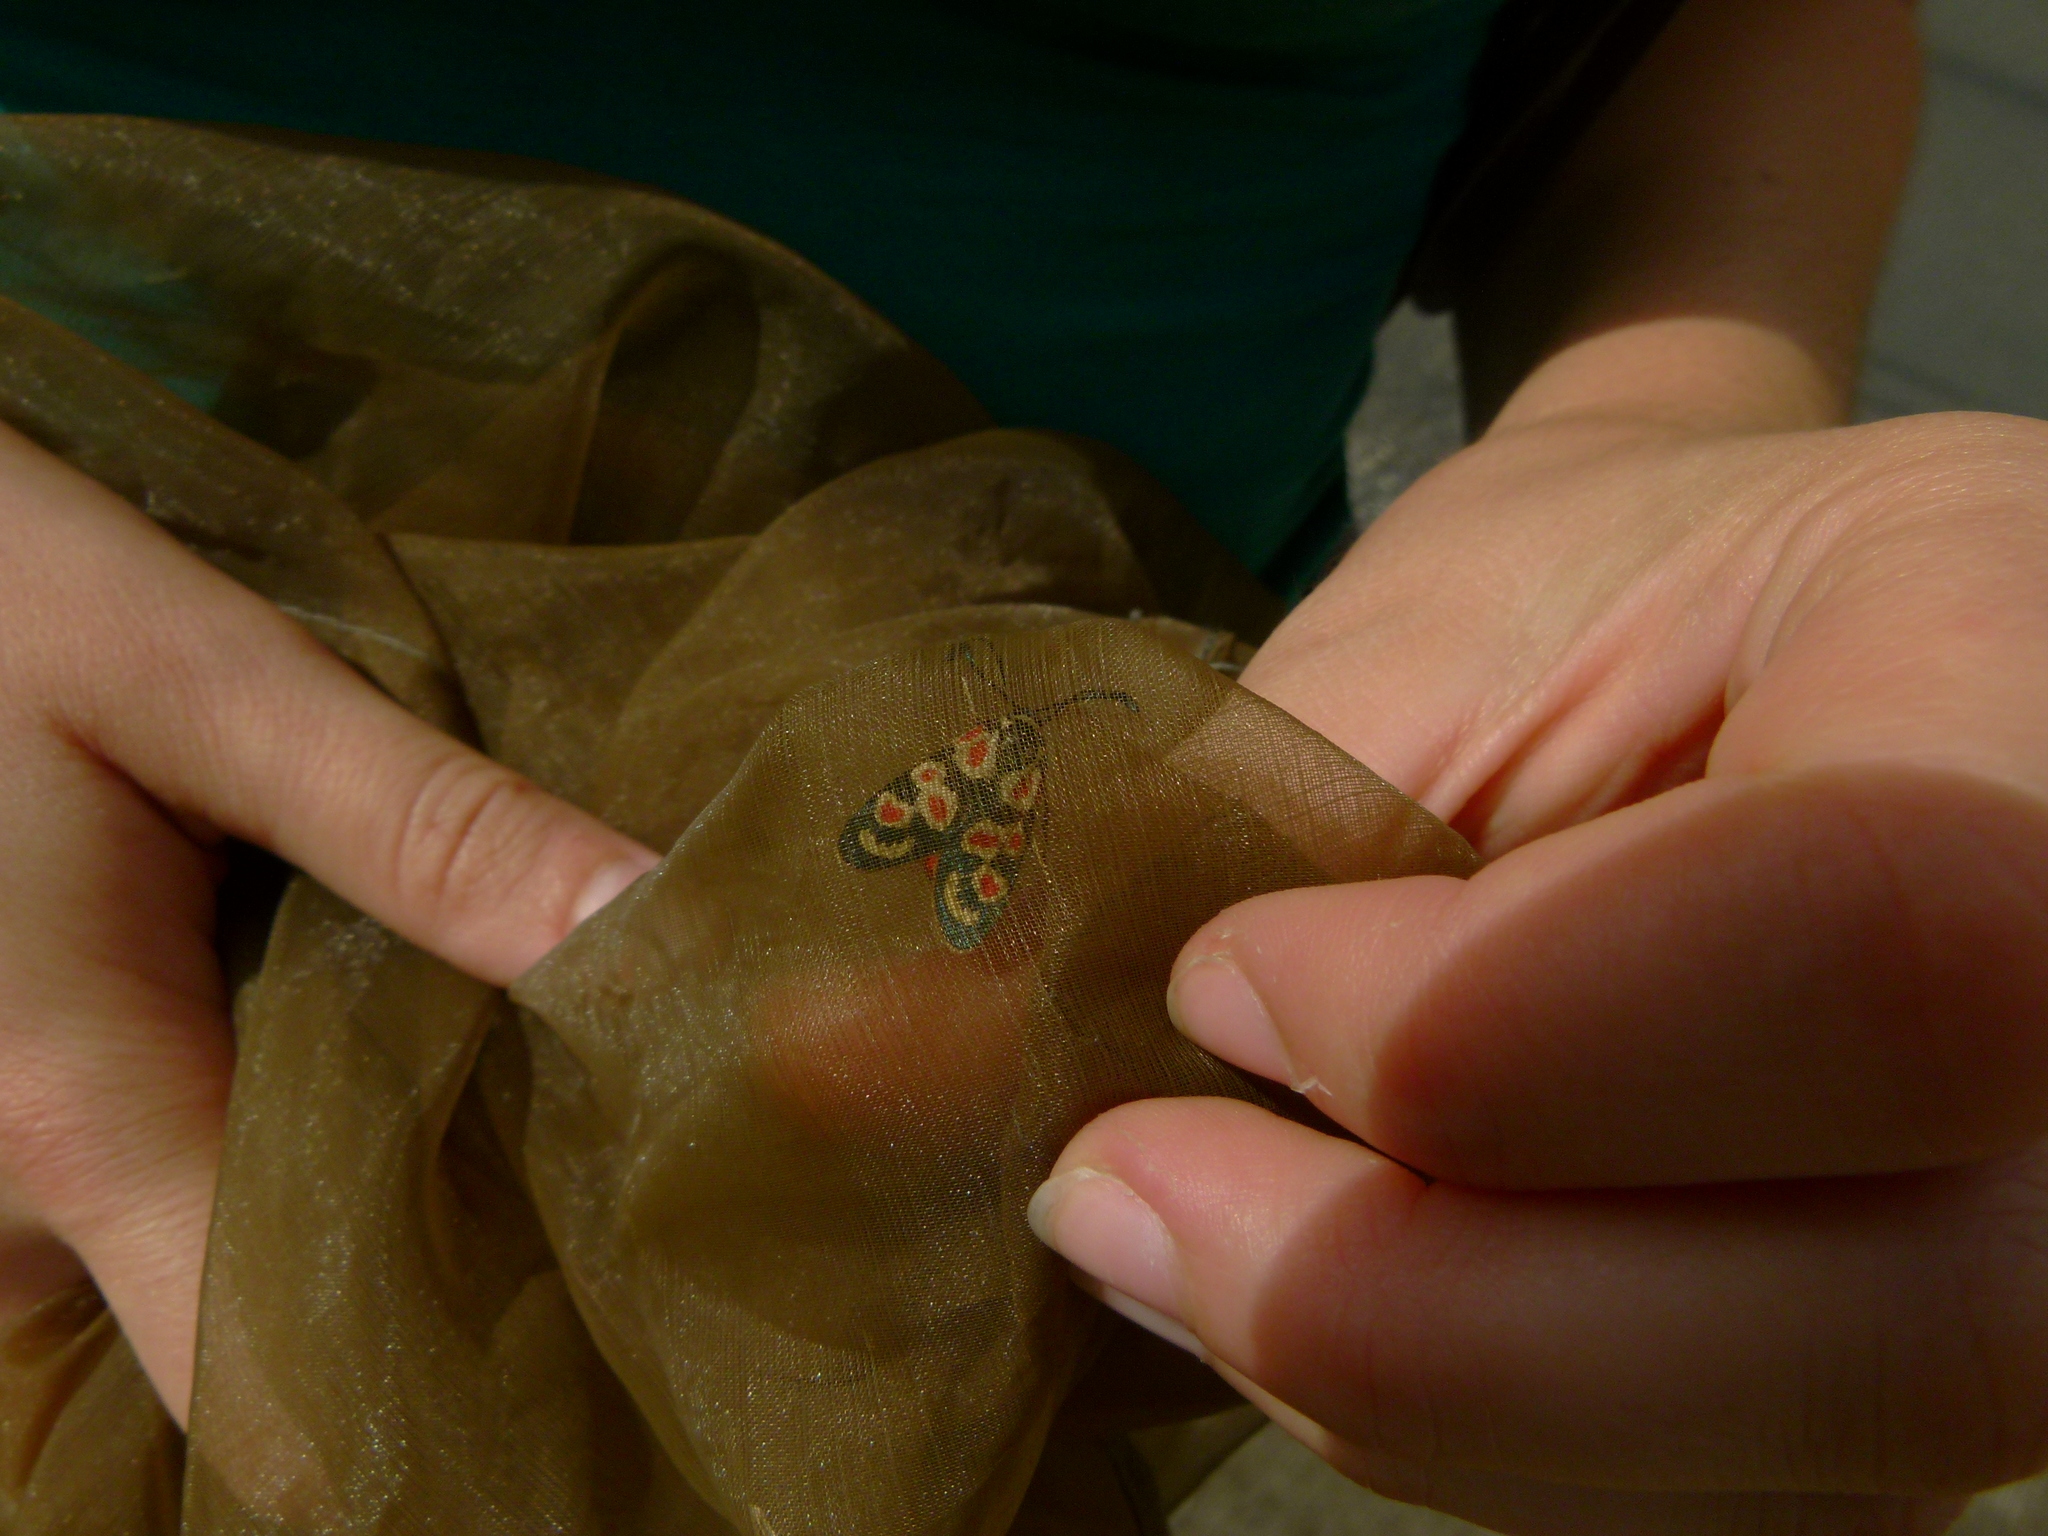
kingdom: Animalia
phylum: Arthropoda
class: Insecta
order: Lepidoptera
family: Zygaenidae
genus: Zygaena
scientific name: Zygaena occitanica
